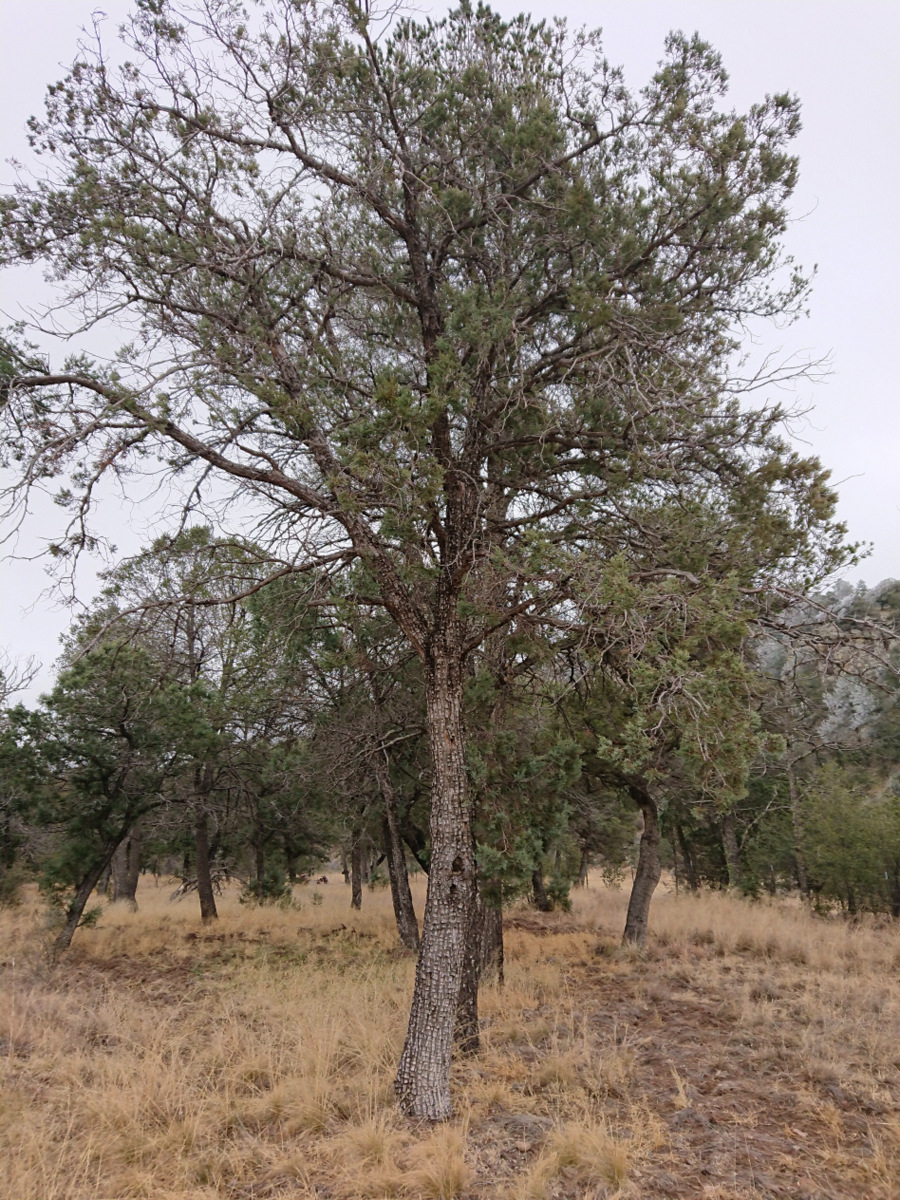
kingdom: Plantae
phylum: Tracheophyta
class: Pinopsida
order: Pinales
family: Cupressaceae
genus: Juniperus
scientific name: Juniperus deppeana
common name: Alligator juniper
